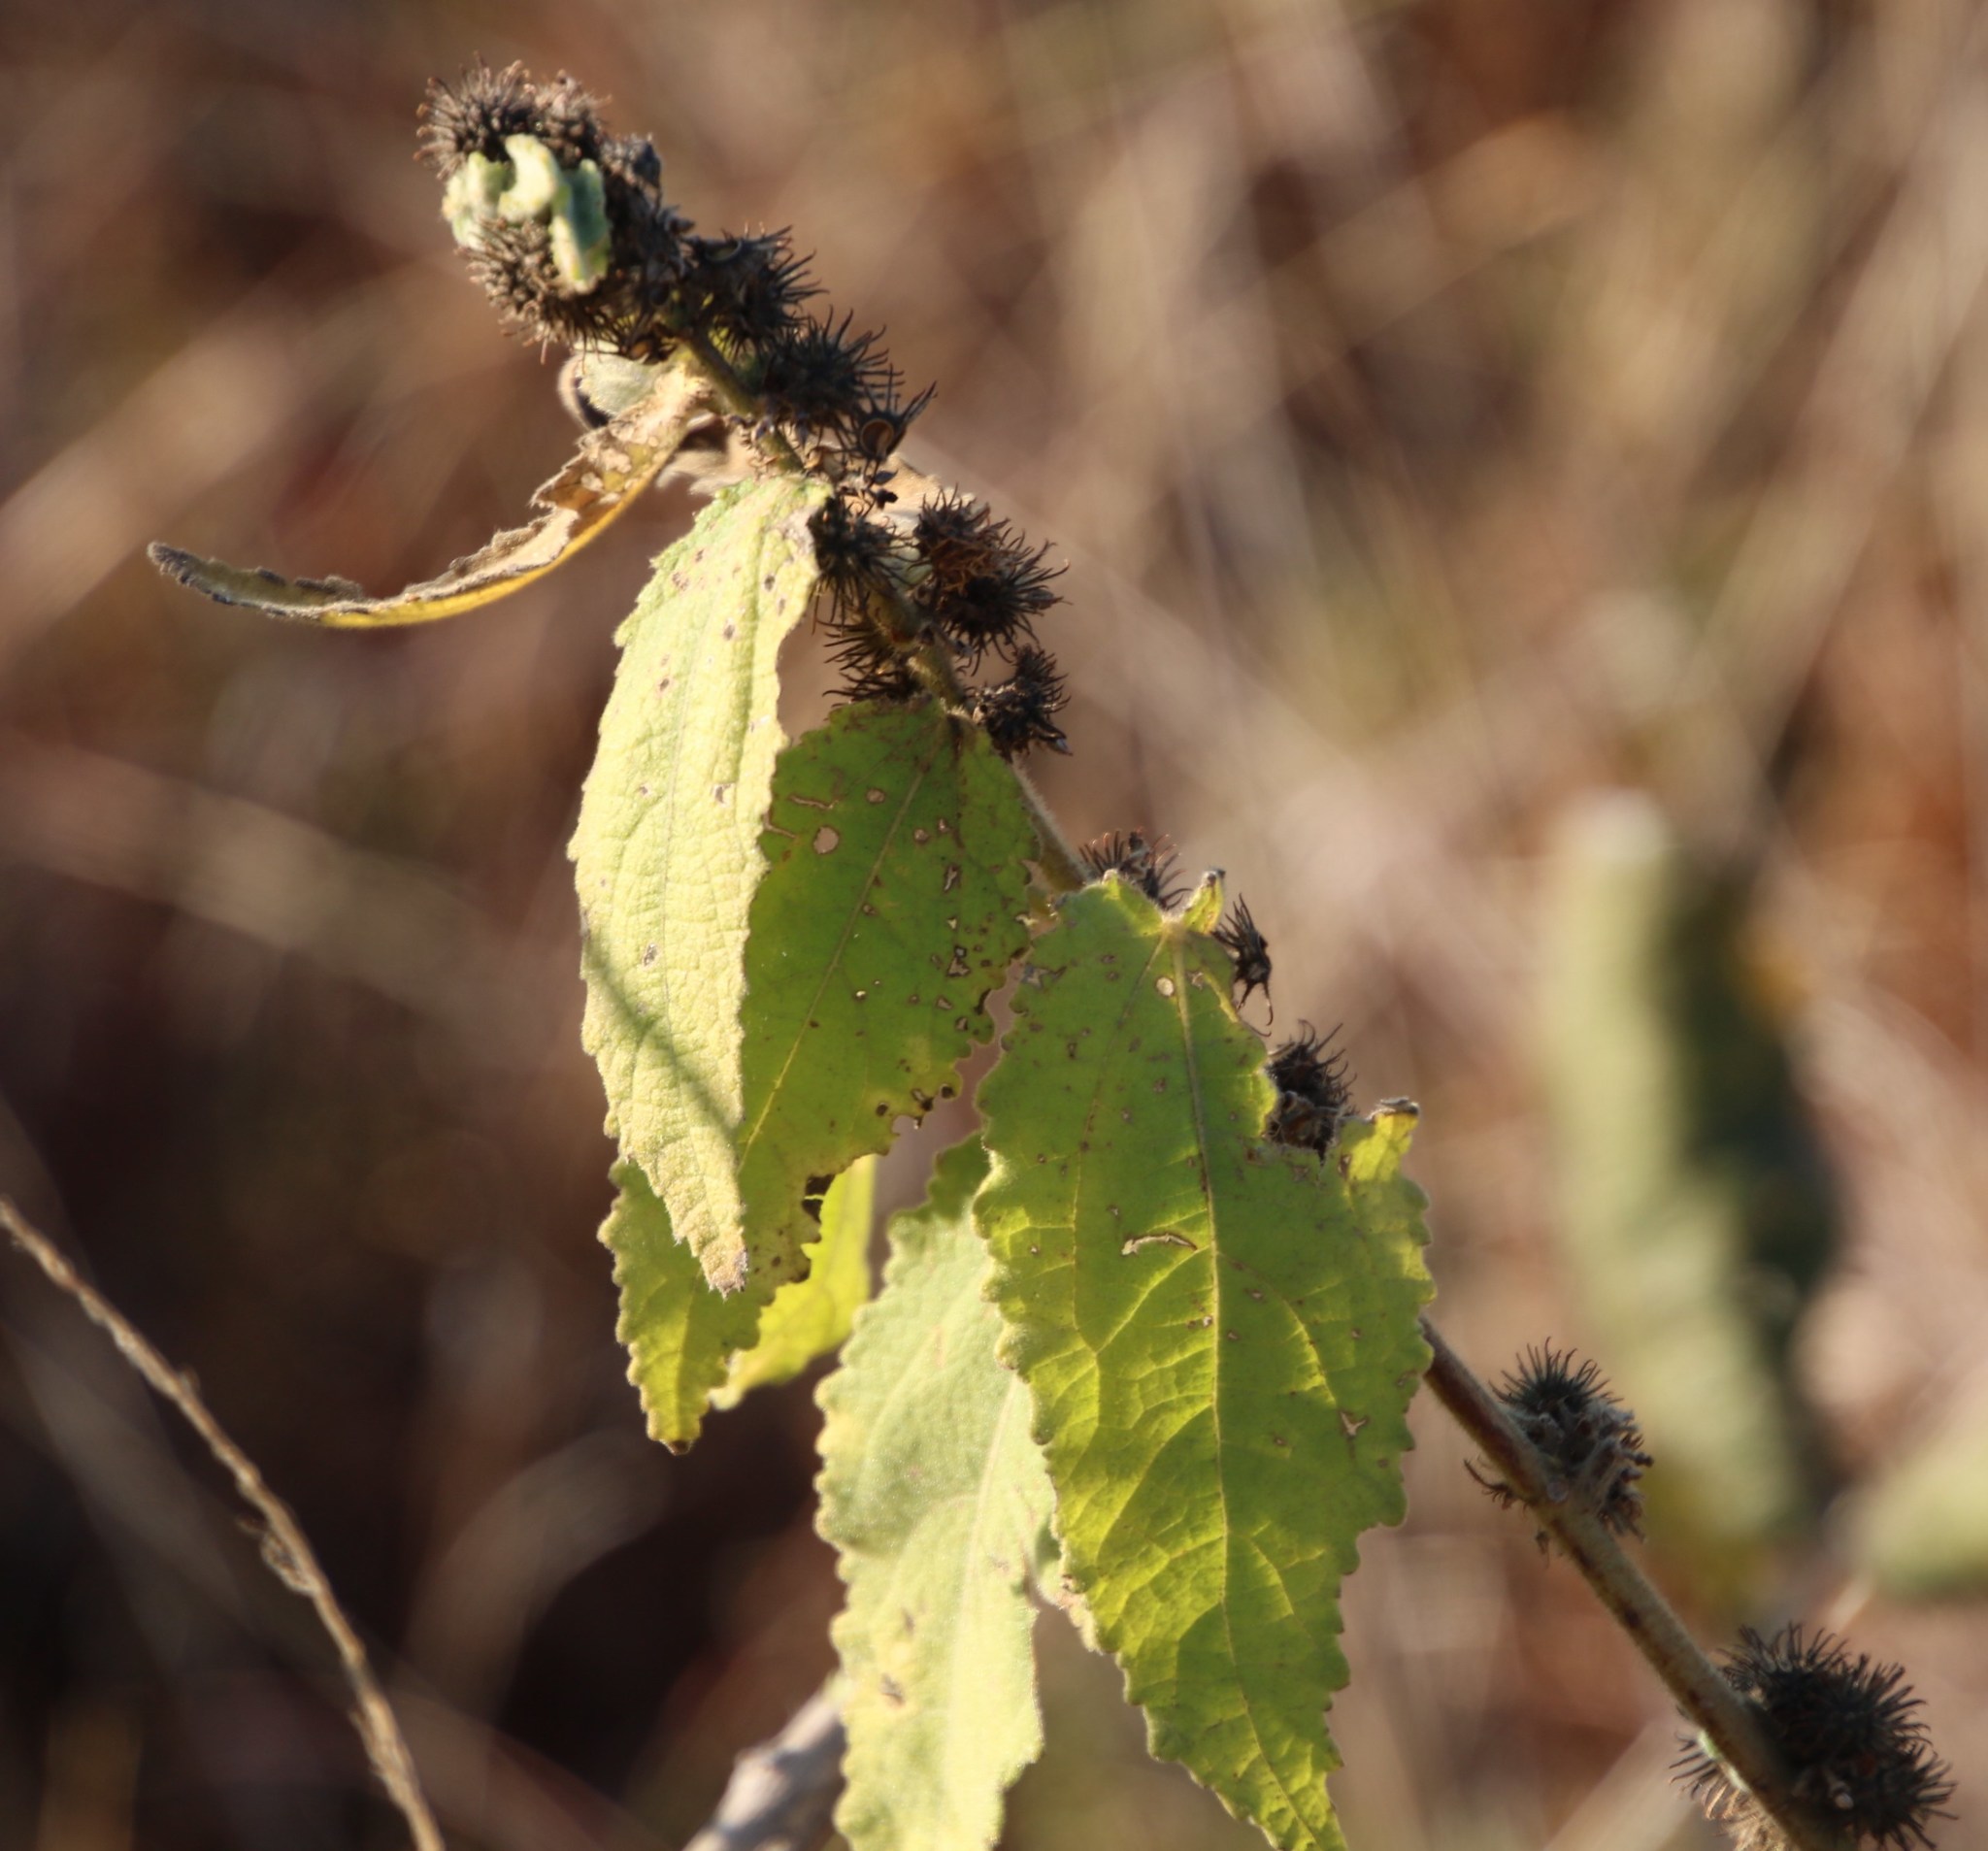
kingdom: Plantae
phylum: Tracheophyta
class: Magnoliopsida
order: Malvales
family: Malvaceae
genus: Triumfetta
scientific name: Triumfetta pilosa
